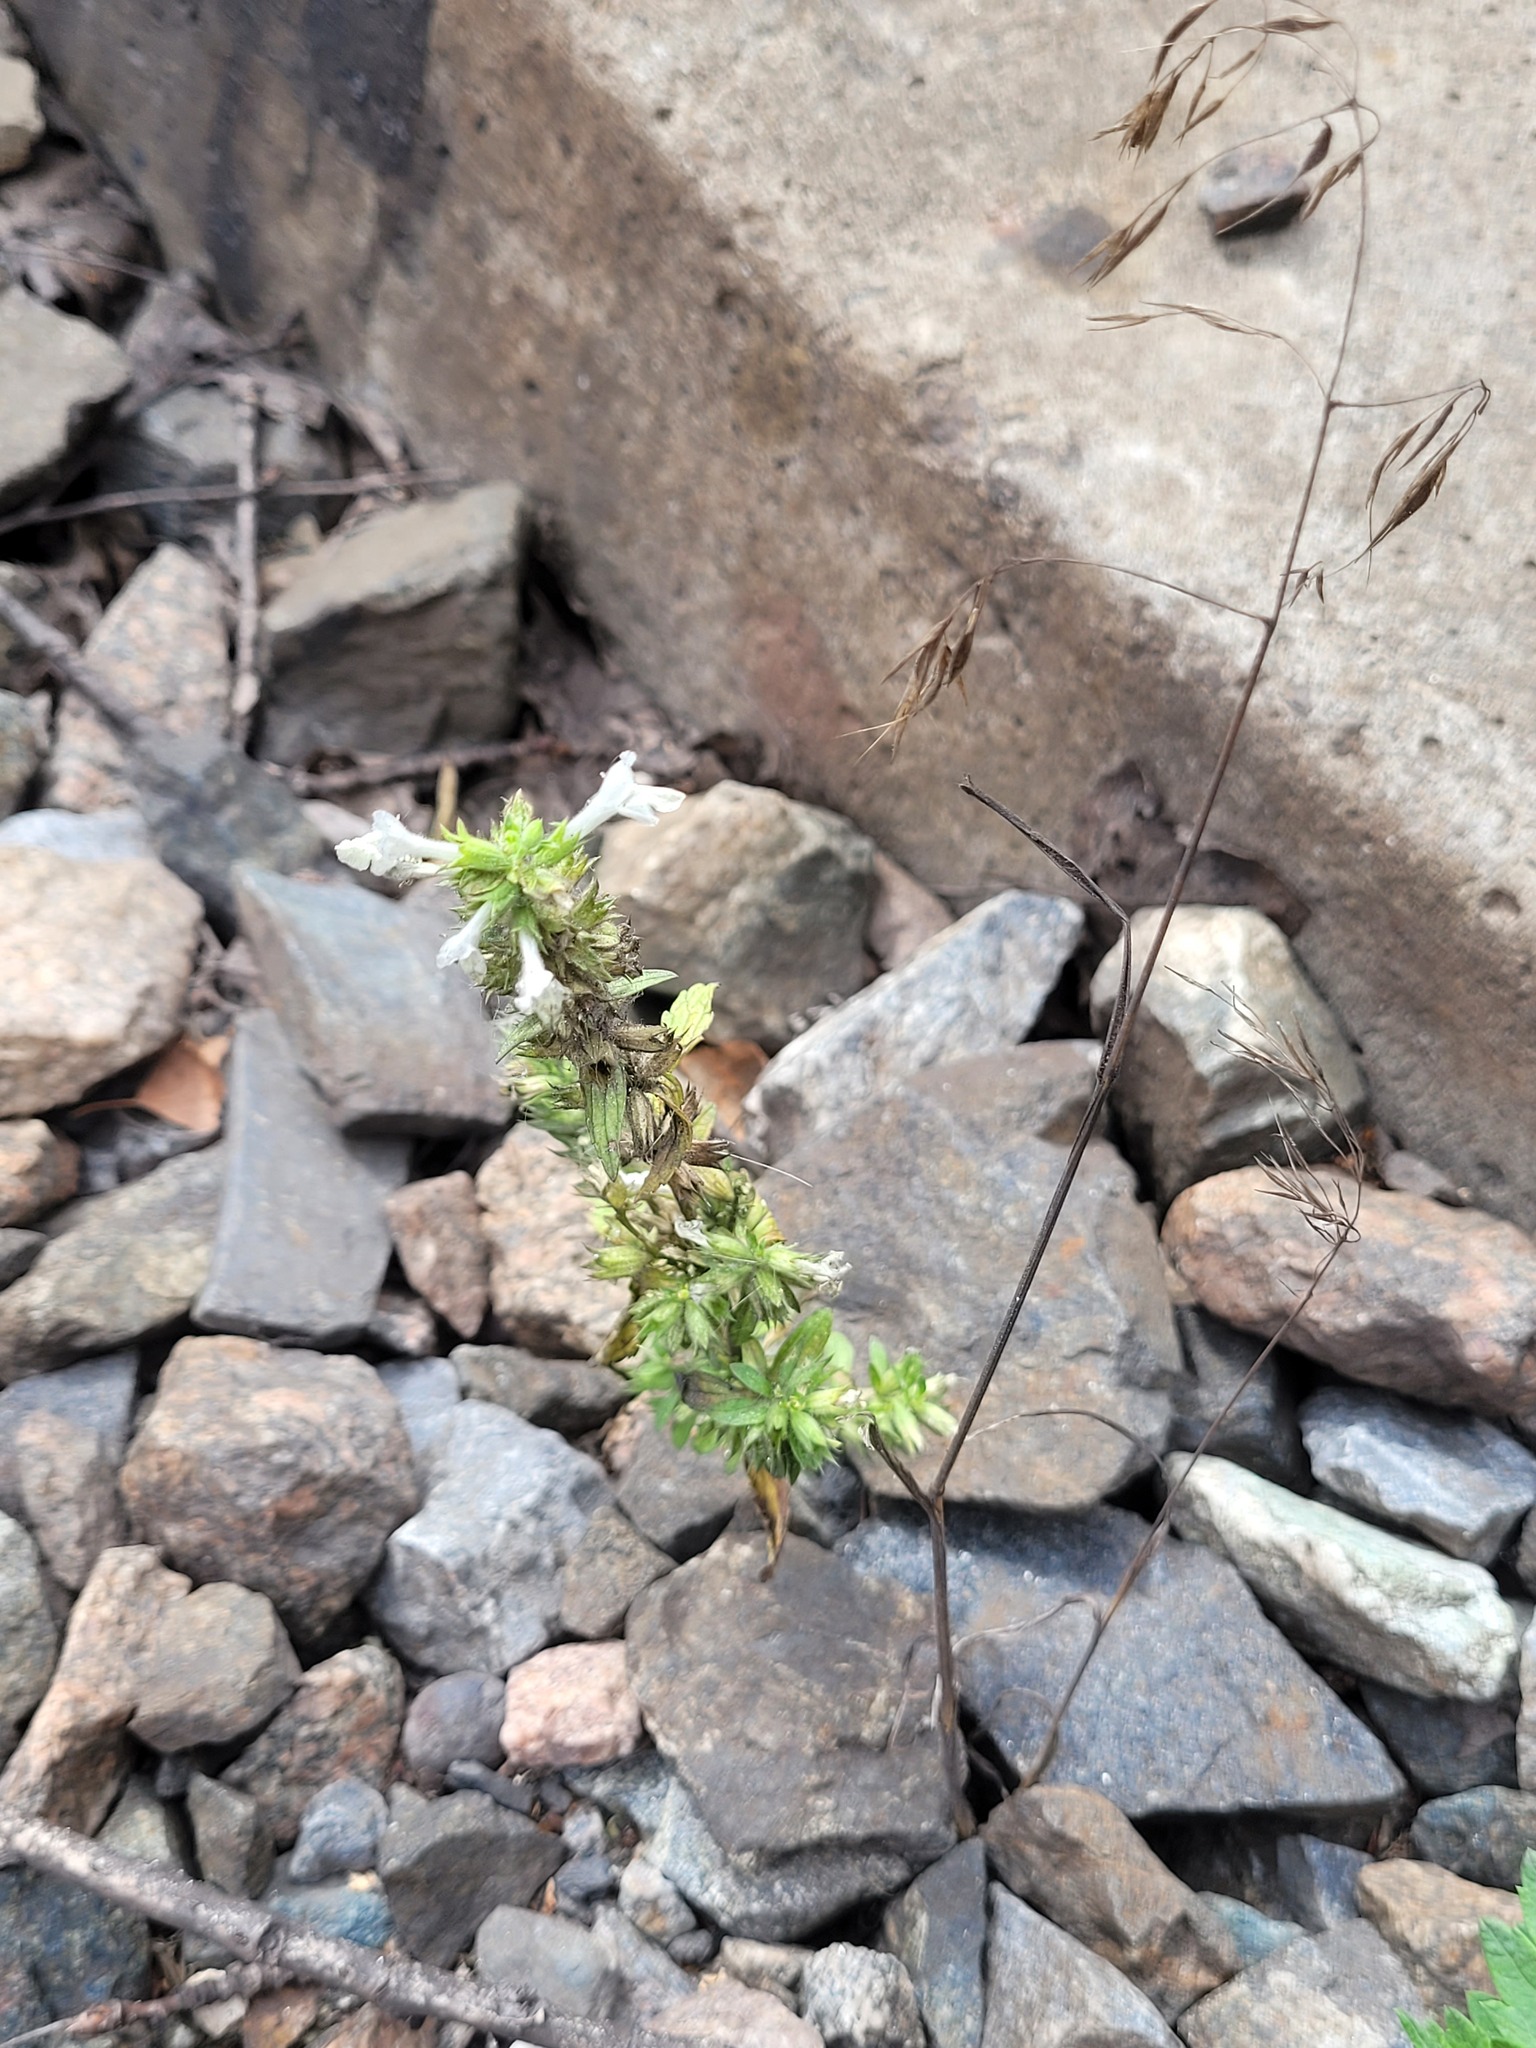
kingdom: Plantae
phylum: Tracheophyta
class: Magnoliopsida
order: Lamiales
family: Lamiaceae
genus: Stachys
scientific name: Stachys annua
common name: Annual yellow-woundwort
